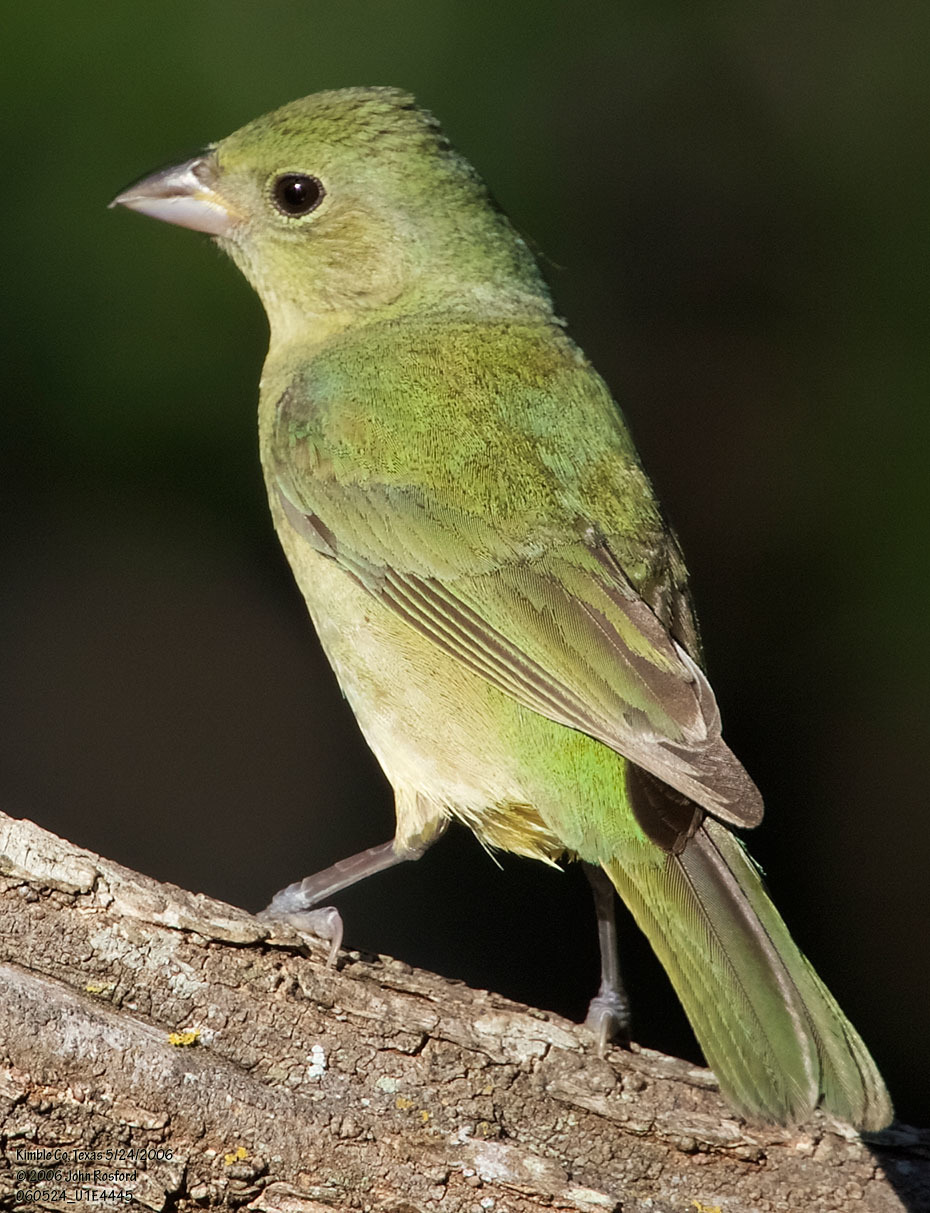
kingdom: Animalia
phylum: Chordata
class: Aves
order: Passeriformes
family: Cardinalidae
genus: Passerina
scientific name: Passerina ciris
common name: Painted bunting
